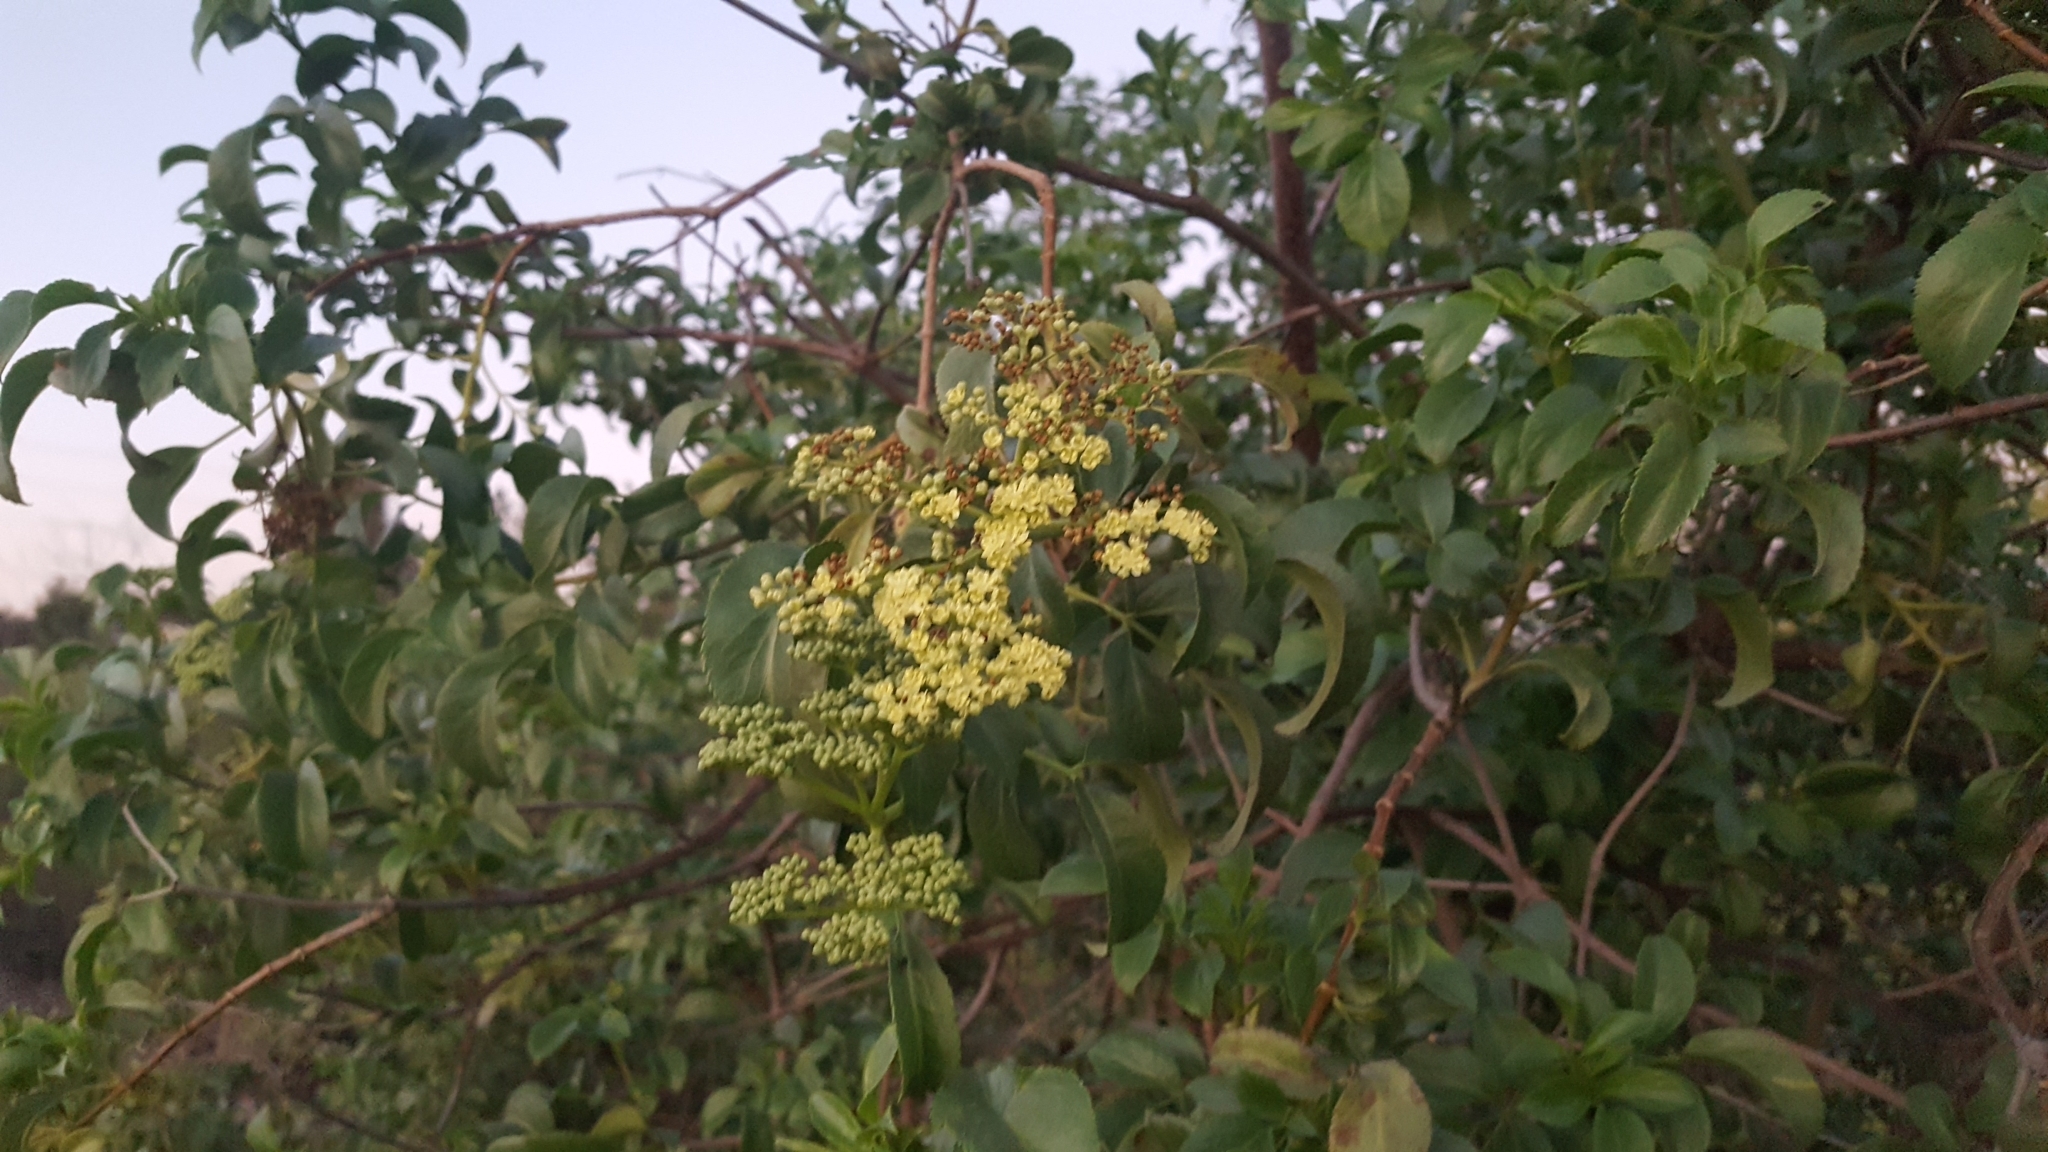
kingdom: Plantae
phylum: Tracheophyta
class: Magnoliopsida
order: Dipsacales
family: Viburnaceae
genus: Sambucus
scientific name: Sambucus cerulea
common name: Blue elder
